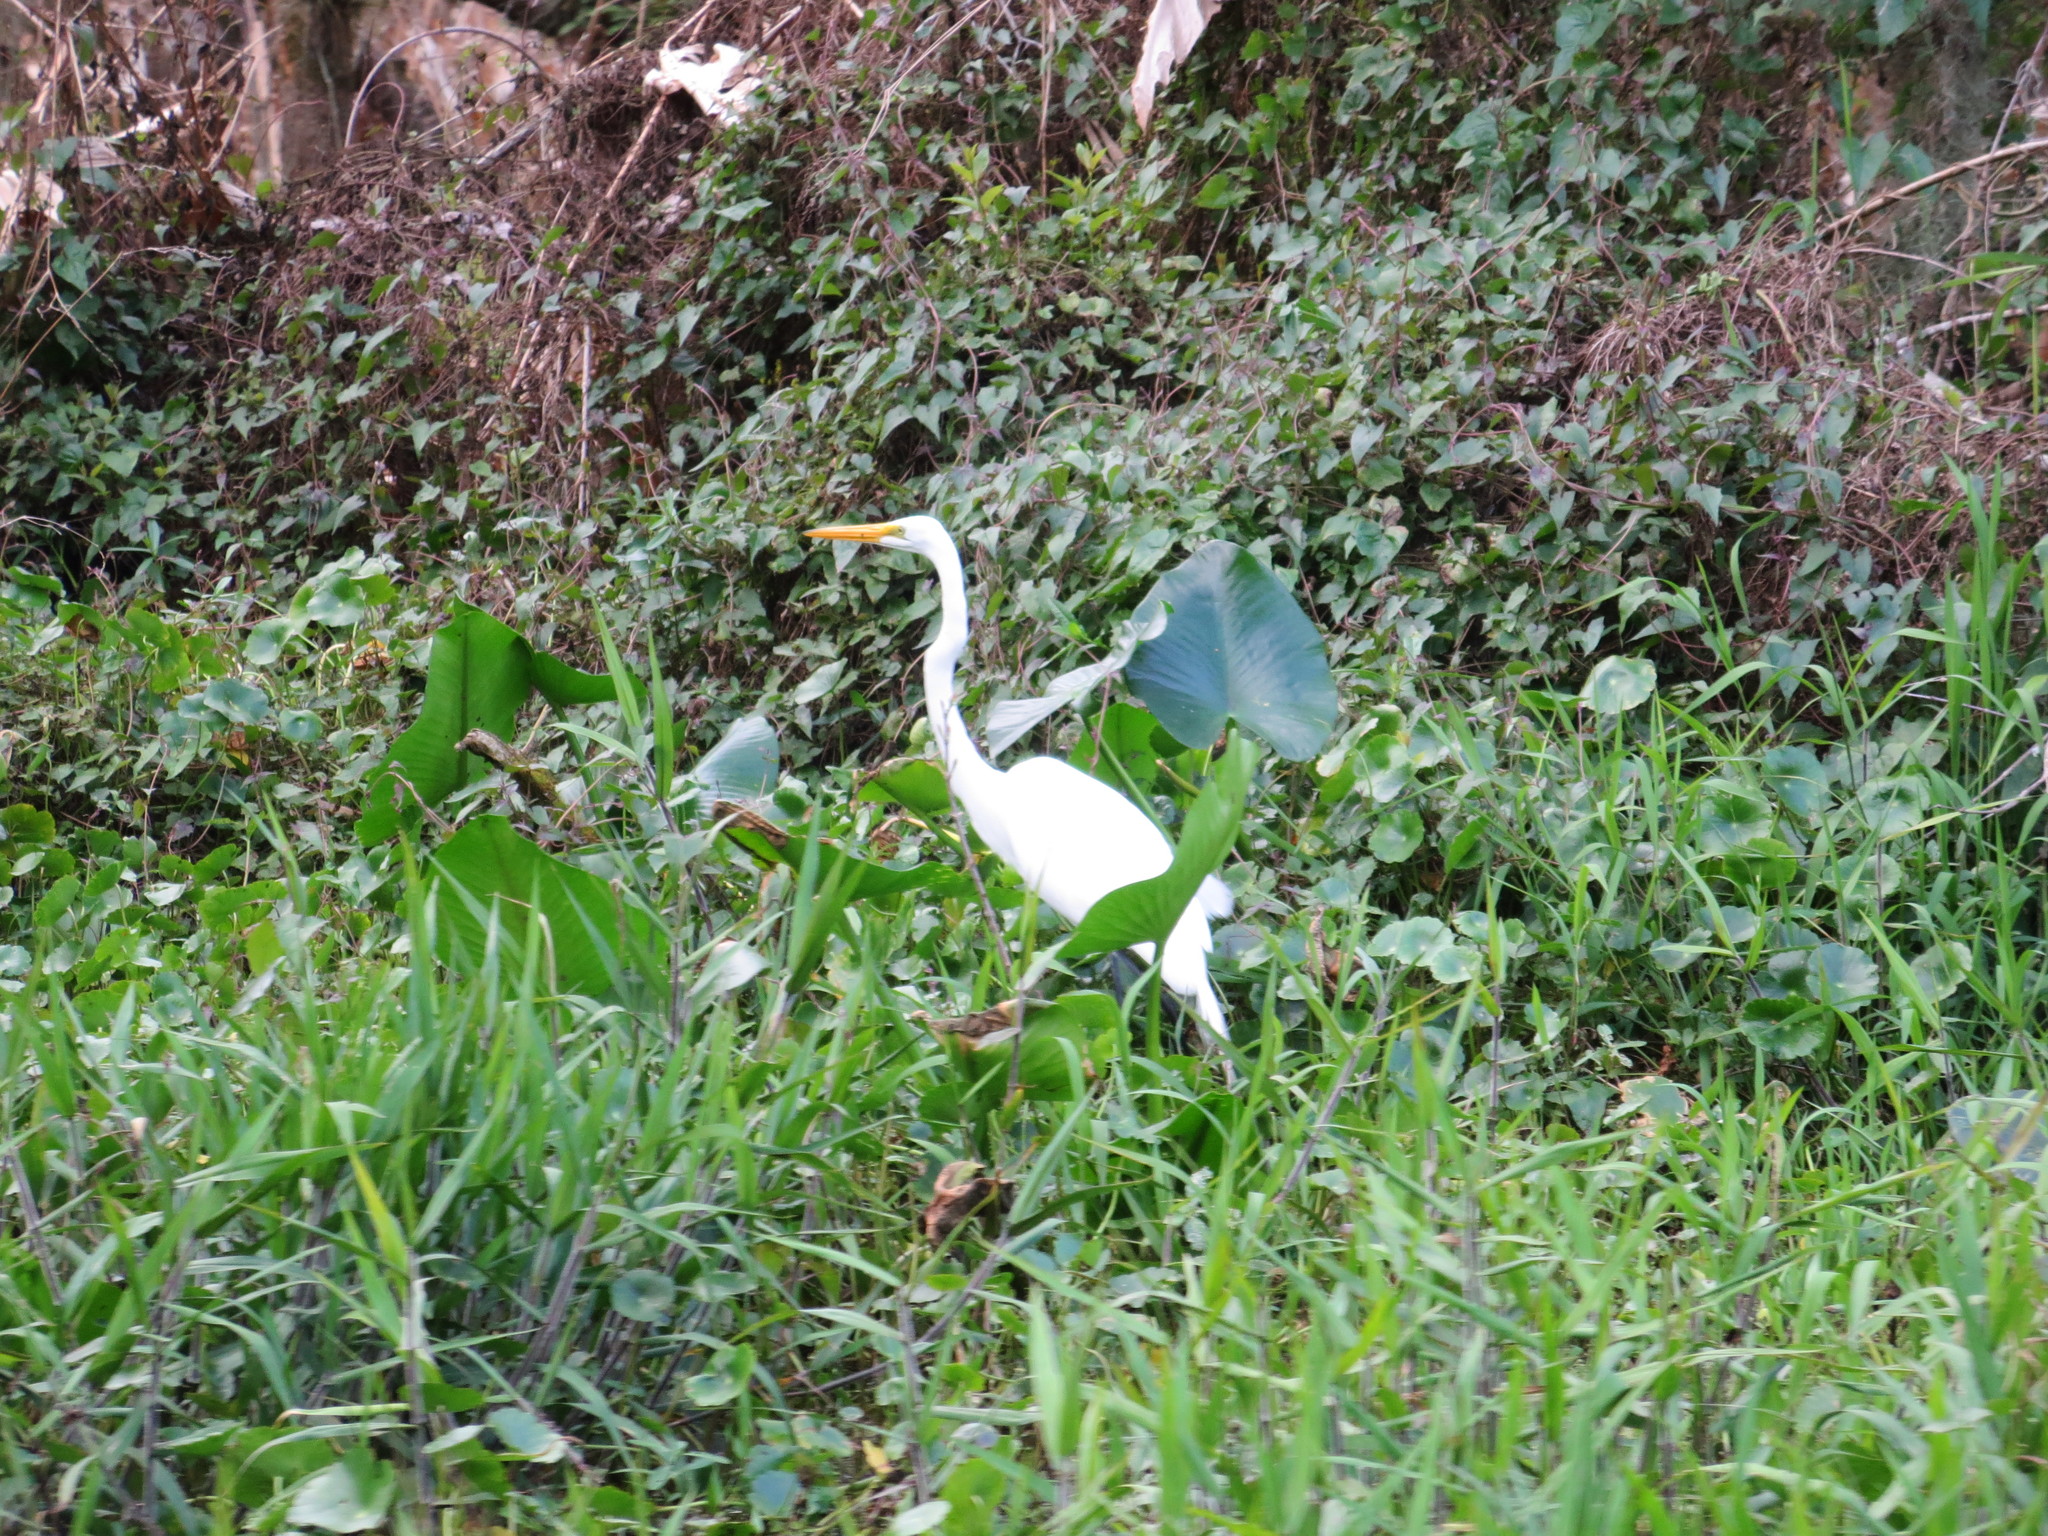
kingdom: Animalia
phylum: Chordata
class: Aves
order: Pelecaniformes
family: Ardeidae
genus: Ardea
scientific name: Ardea alba
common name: Great egret
